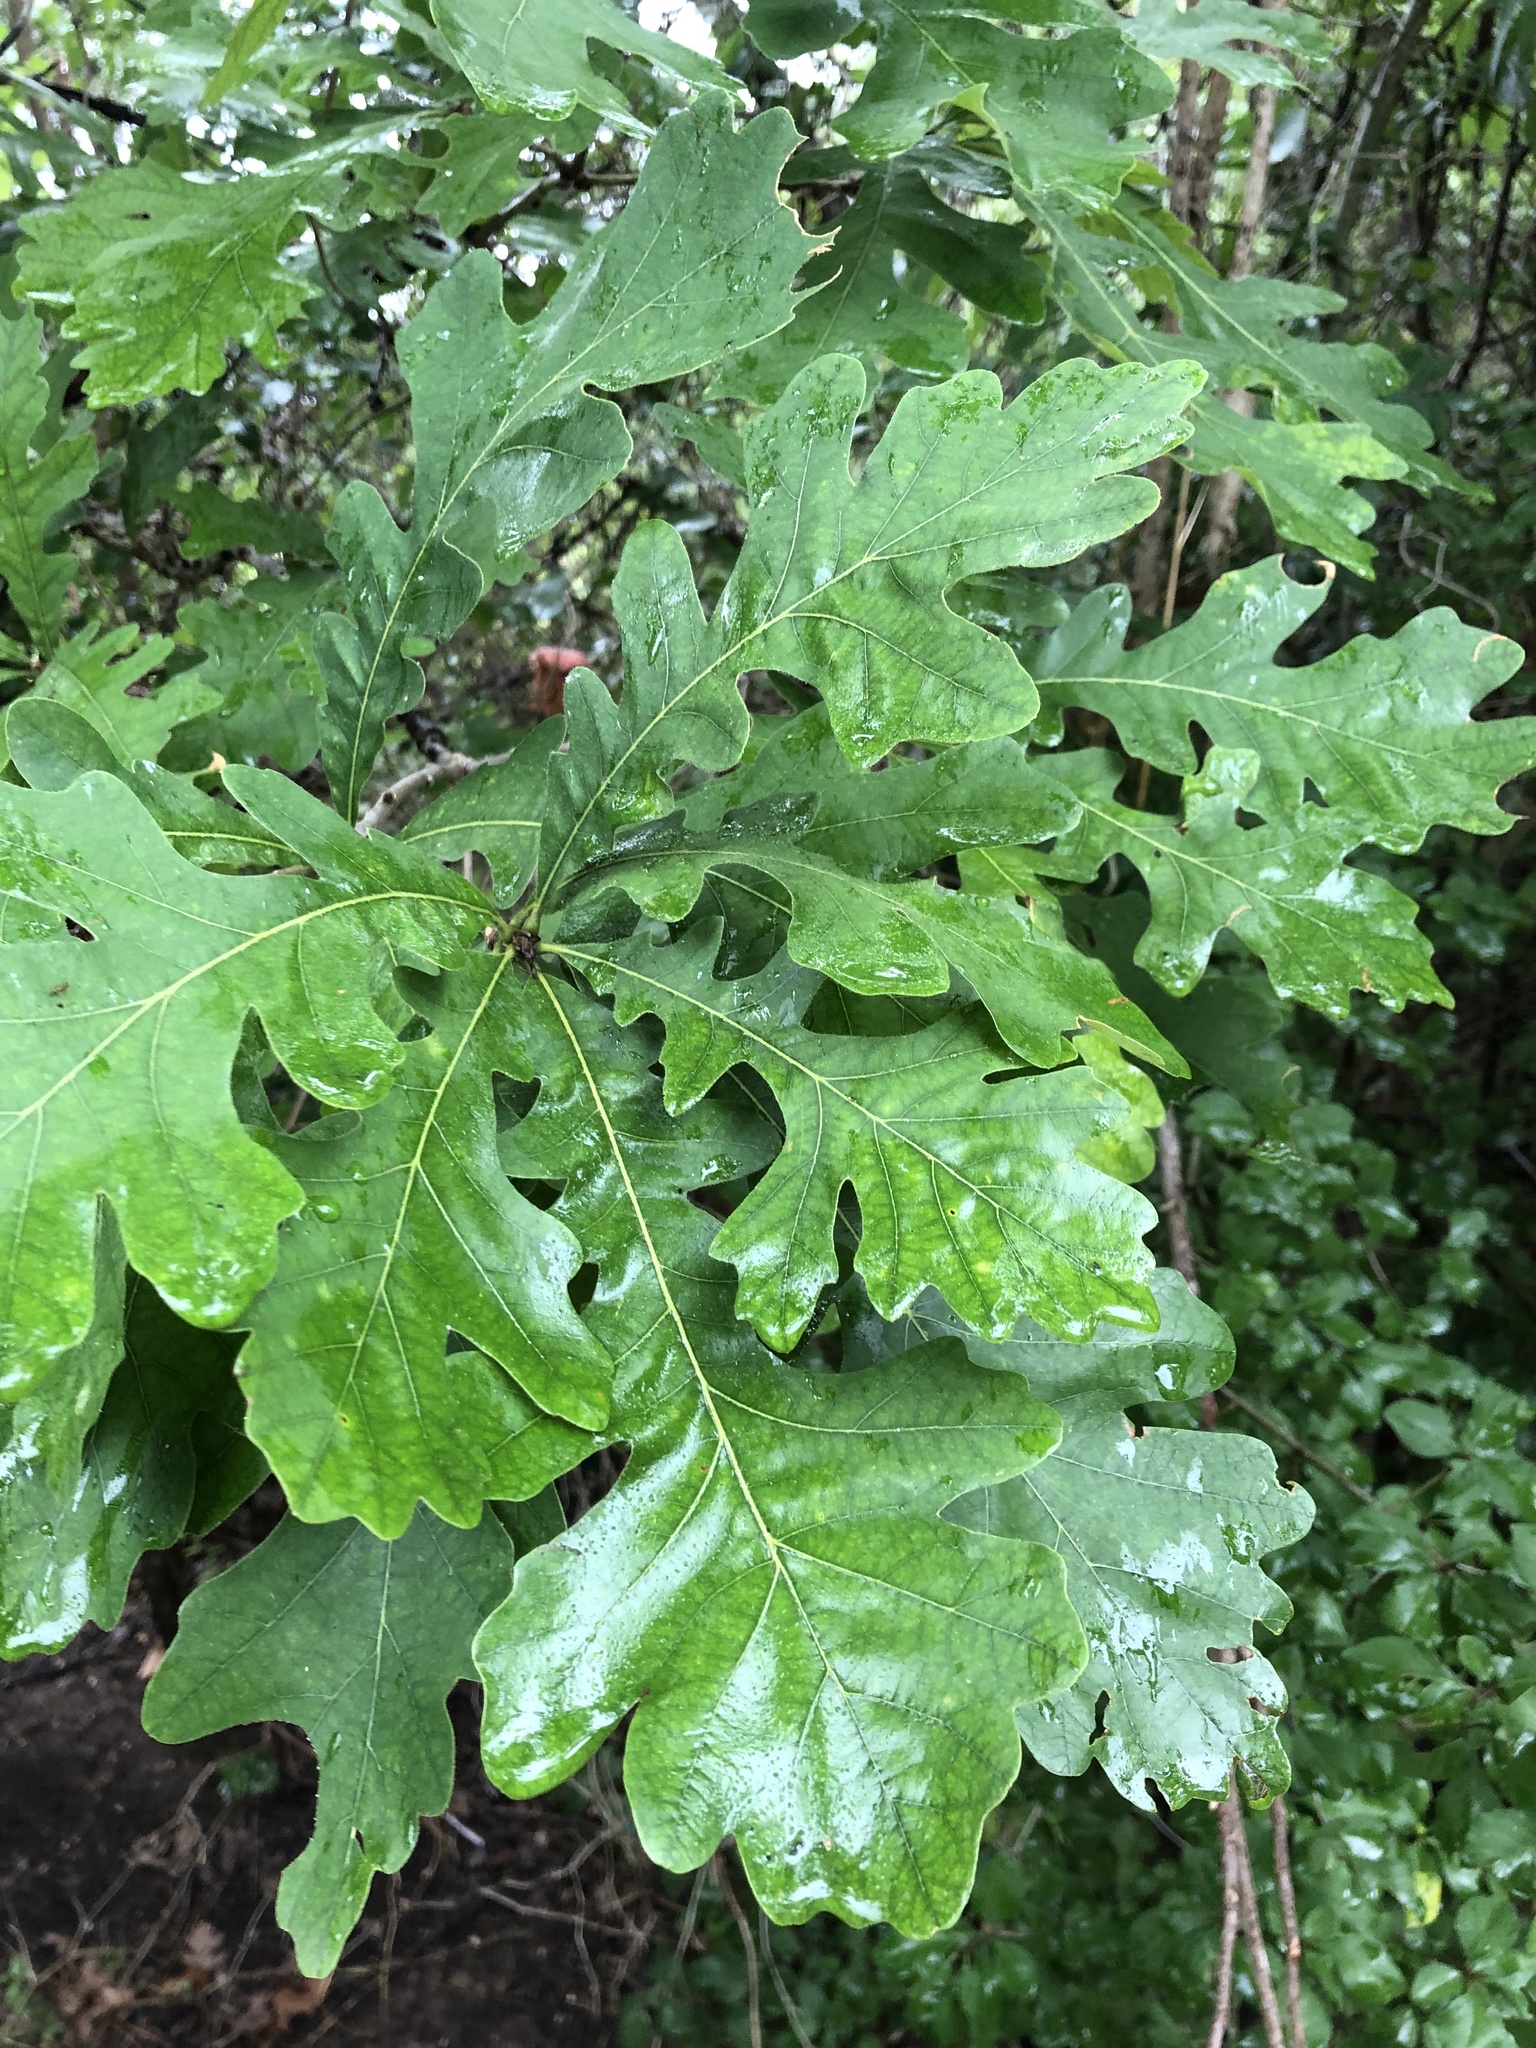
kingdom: Plantae
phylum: Tracheophyta
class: Magnoliopsida
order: Fagales
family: Fagaceae
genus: Quercus
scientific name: Quercus macrocarpa
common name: Bur oak
